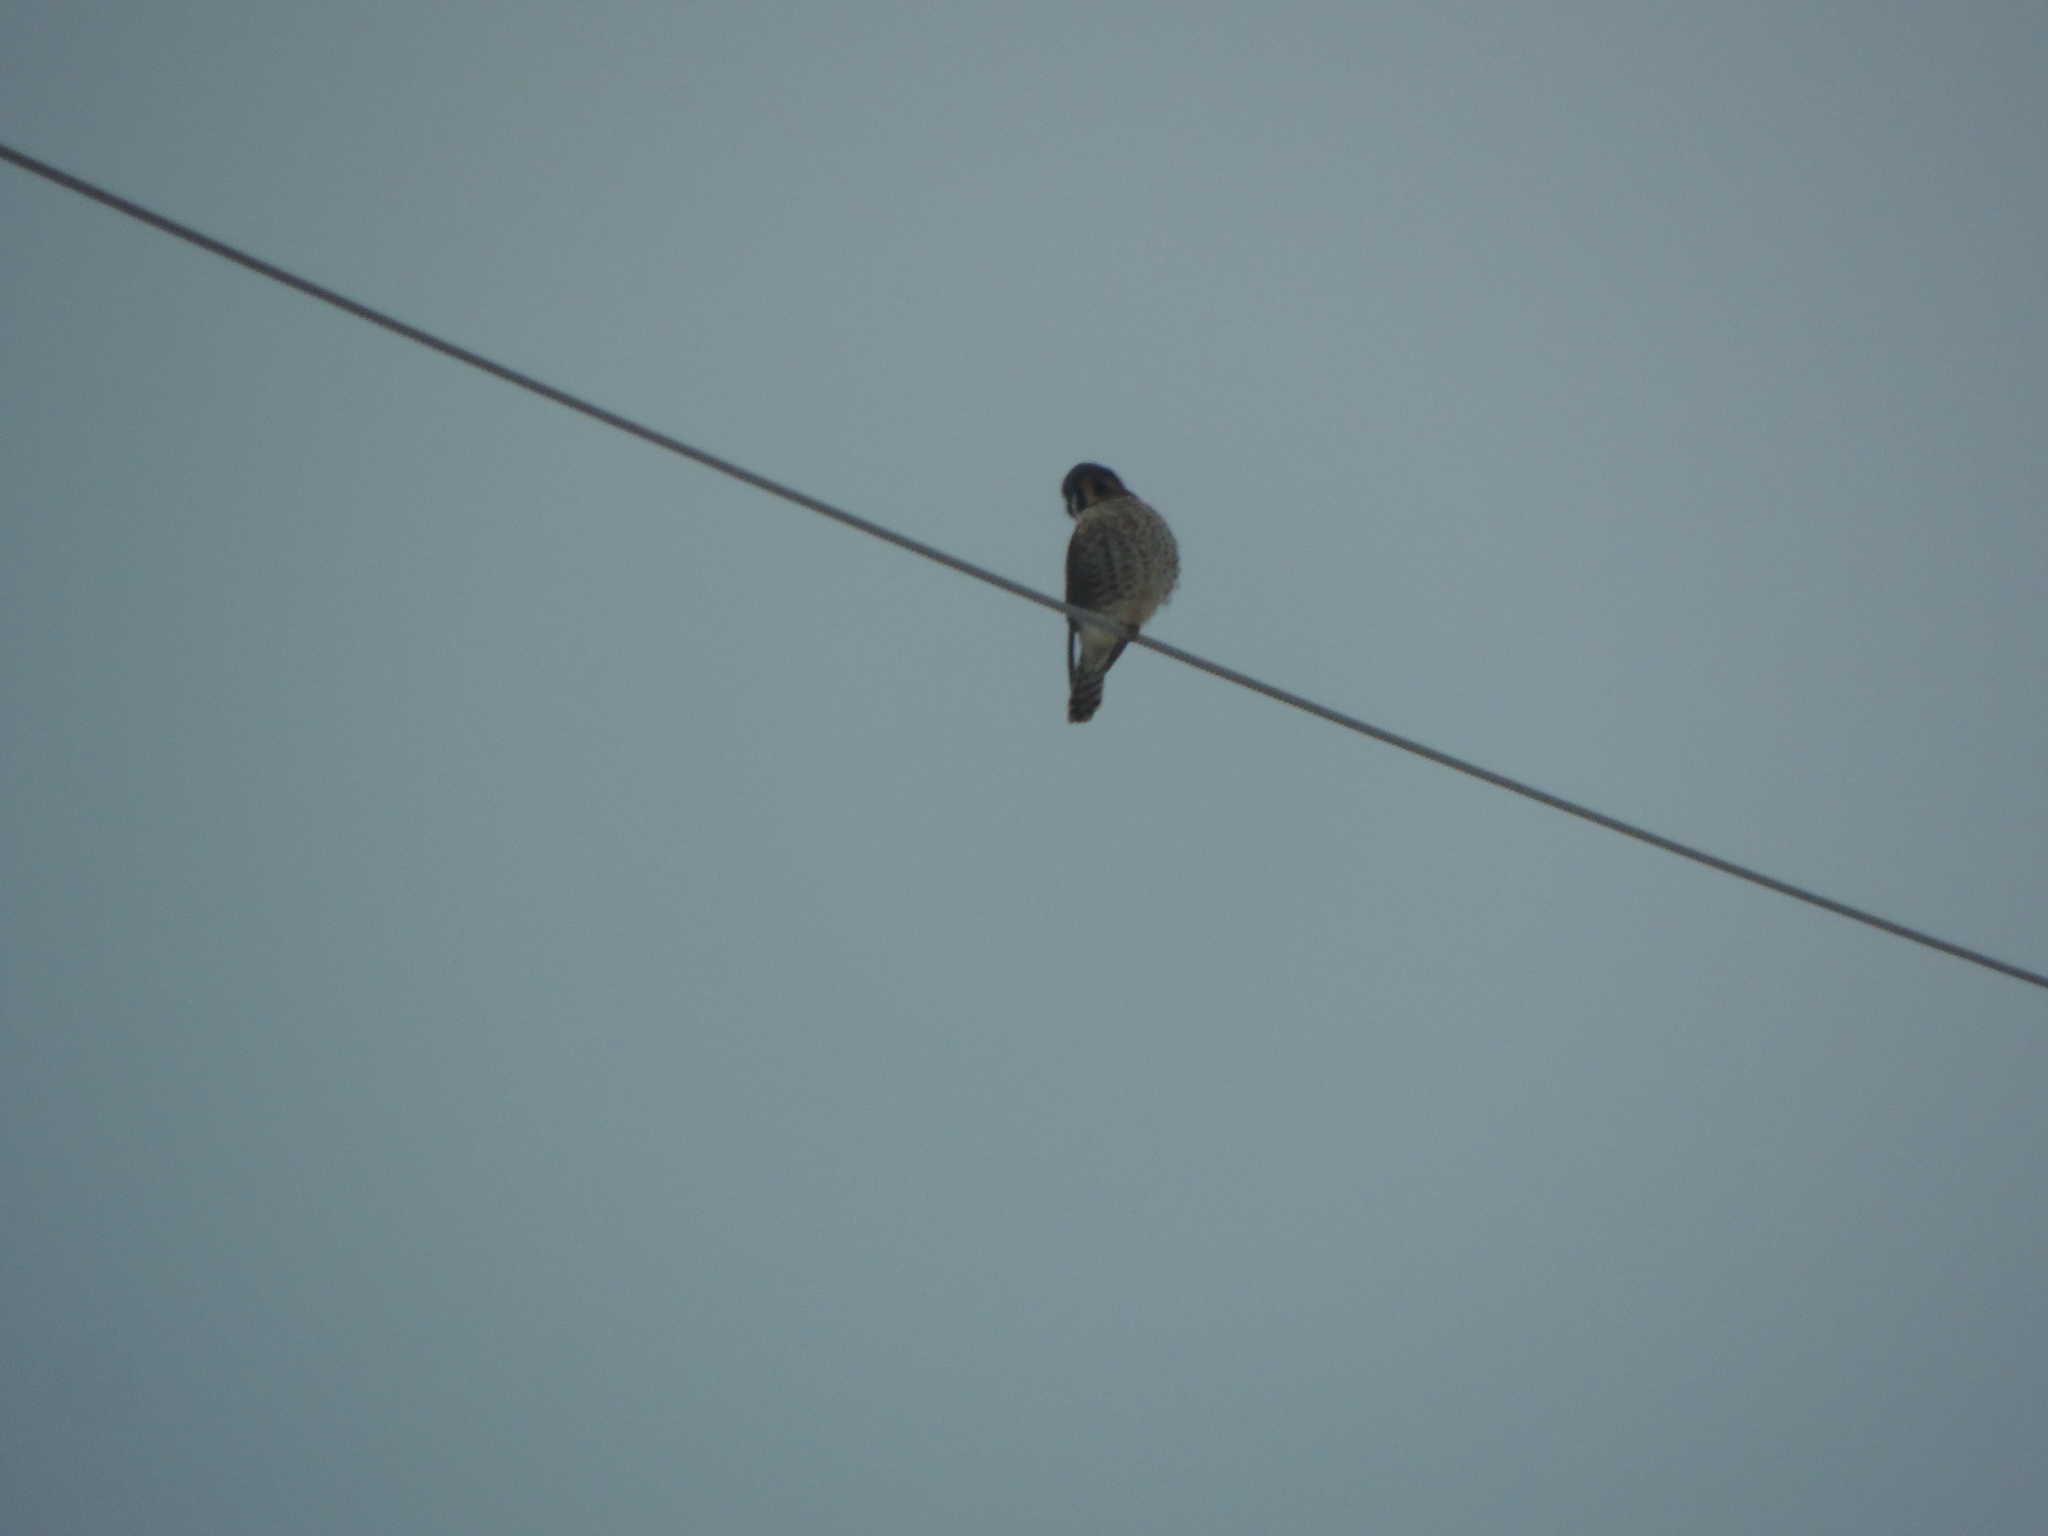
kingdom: Animalia
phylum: Chordata
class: Aves
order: Falconiformes
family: Falconidae
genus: Falco
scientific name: Falco sparverius
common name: American kestrel
